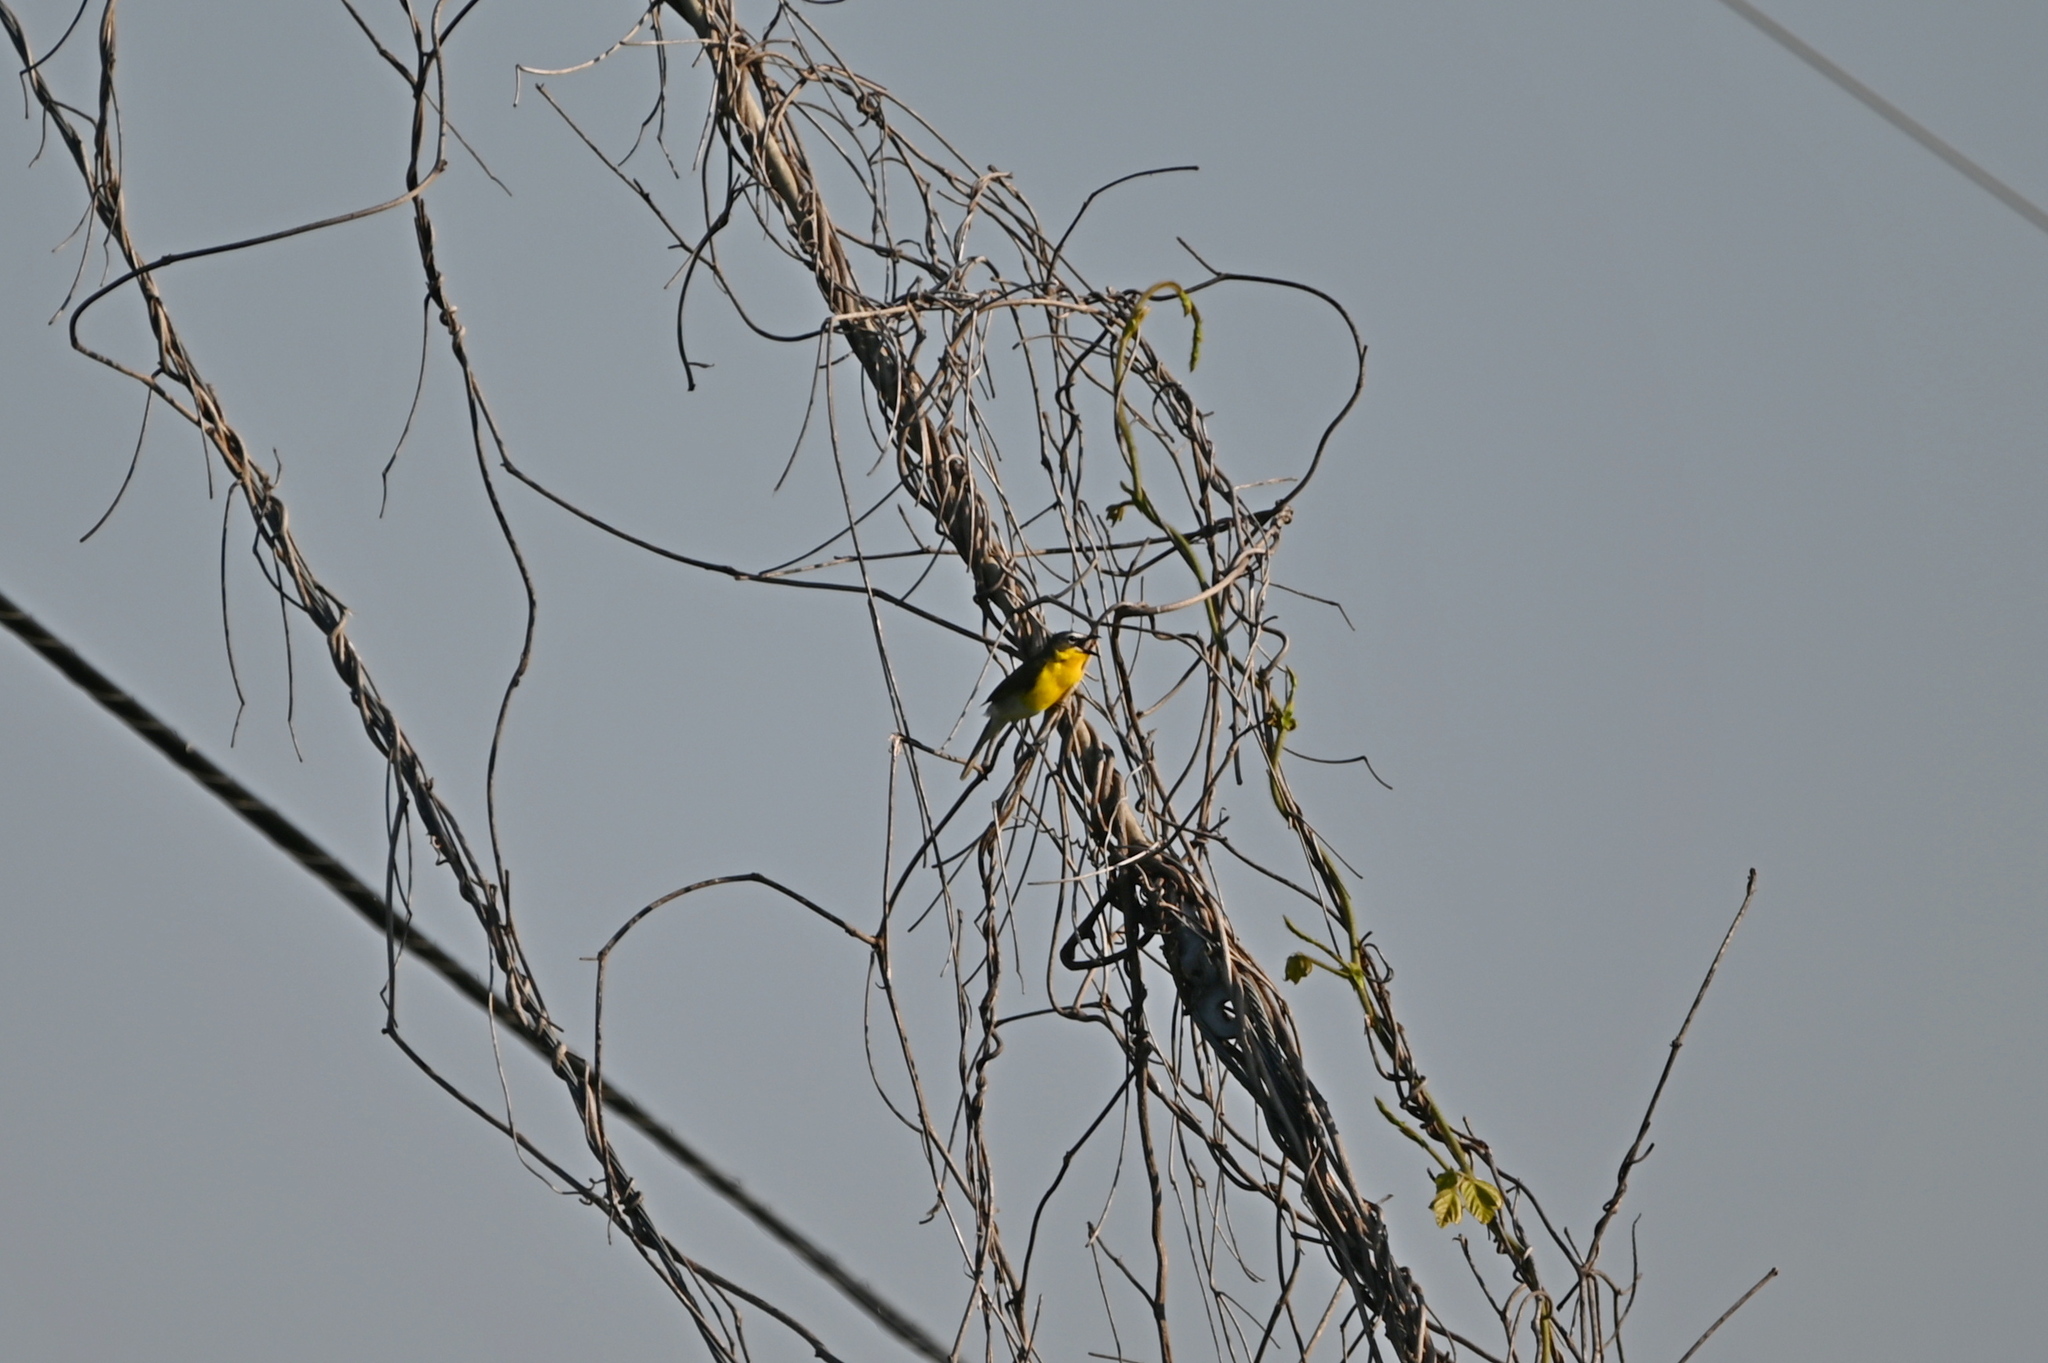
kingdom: Animalia
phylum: Chordata
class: Aves
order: Passeriformes
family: Parulidae
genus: Icteria
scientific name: Icteria virens
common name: Yellow-breasted chat
